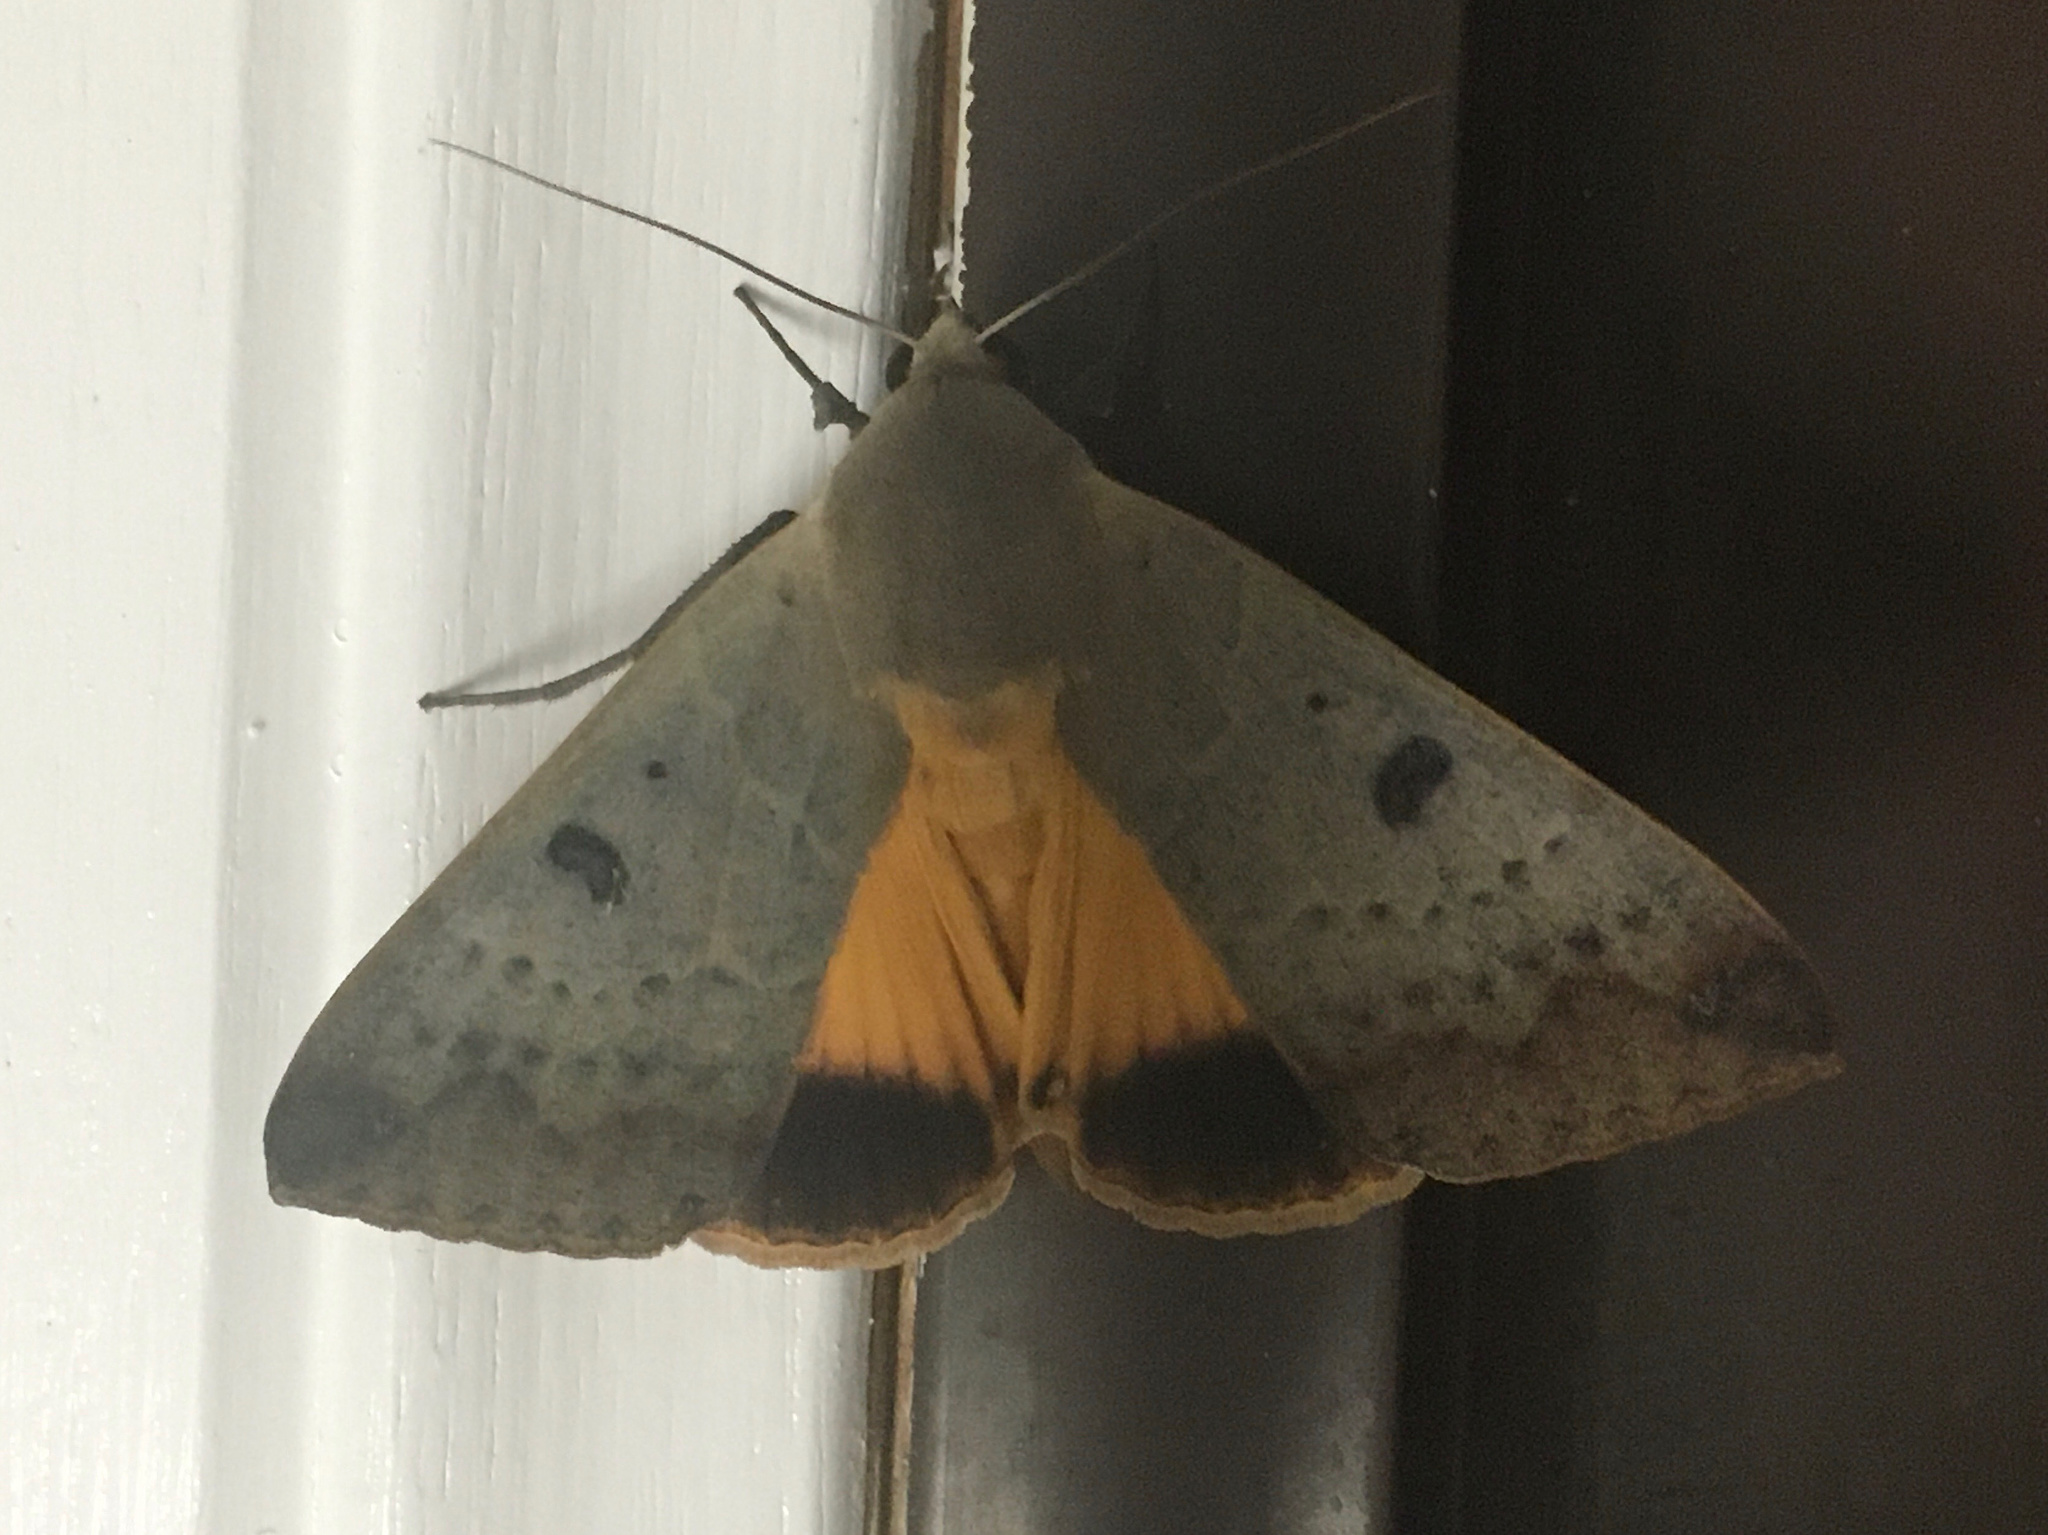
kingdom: Animalia
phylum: Arthropoda
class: Insecta
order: Lepidoptera
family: Erebidae
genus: Ophiusa
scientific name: Ophiusa disjungens
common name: Moth
